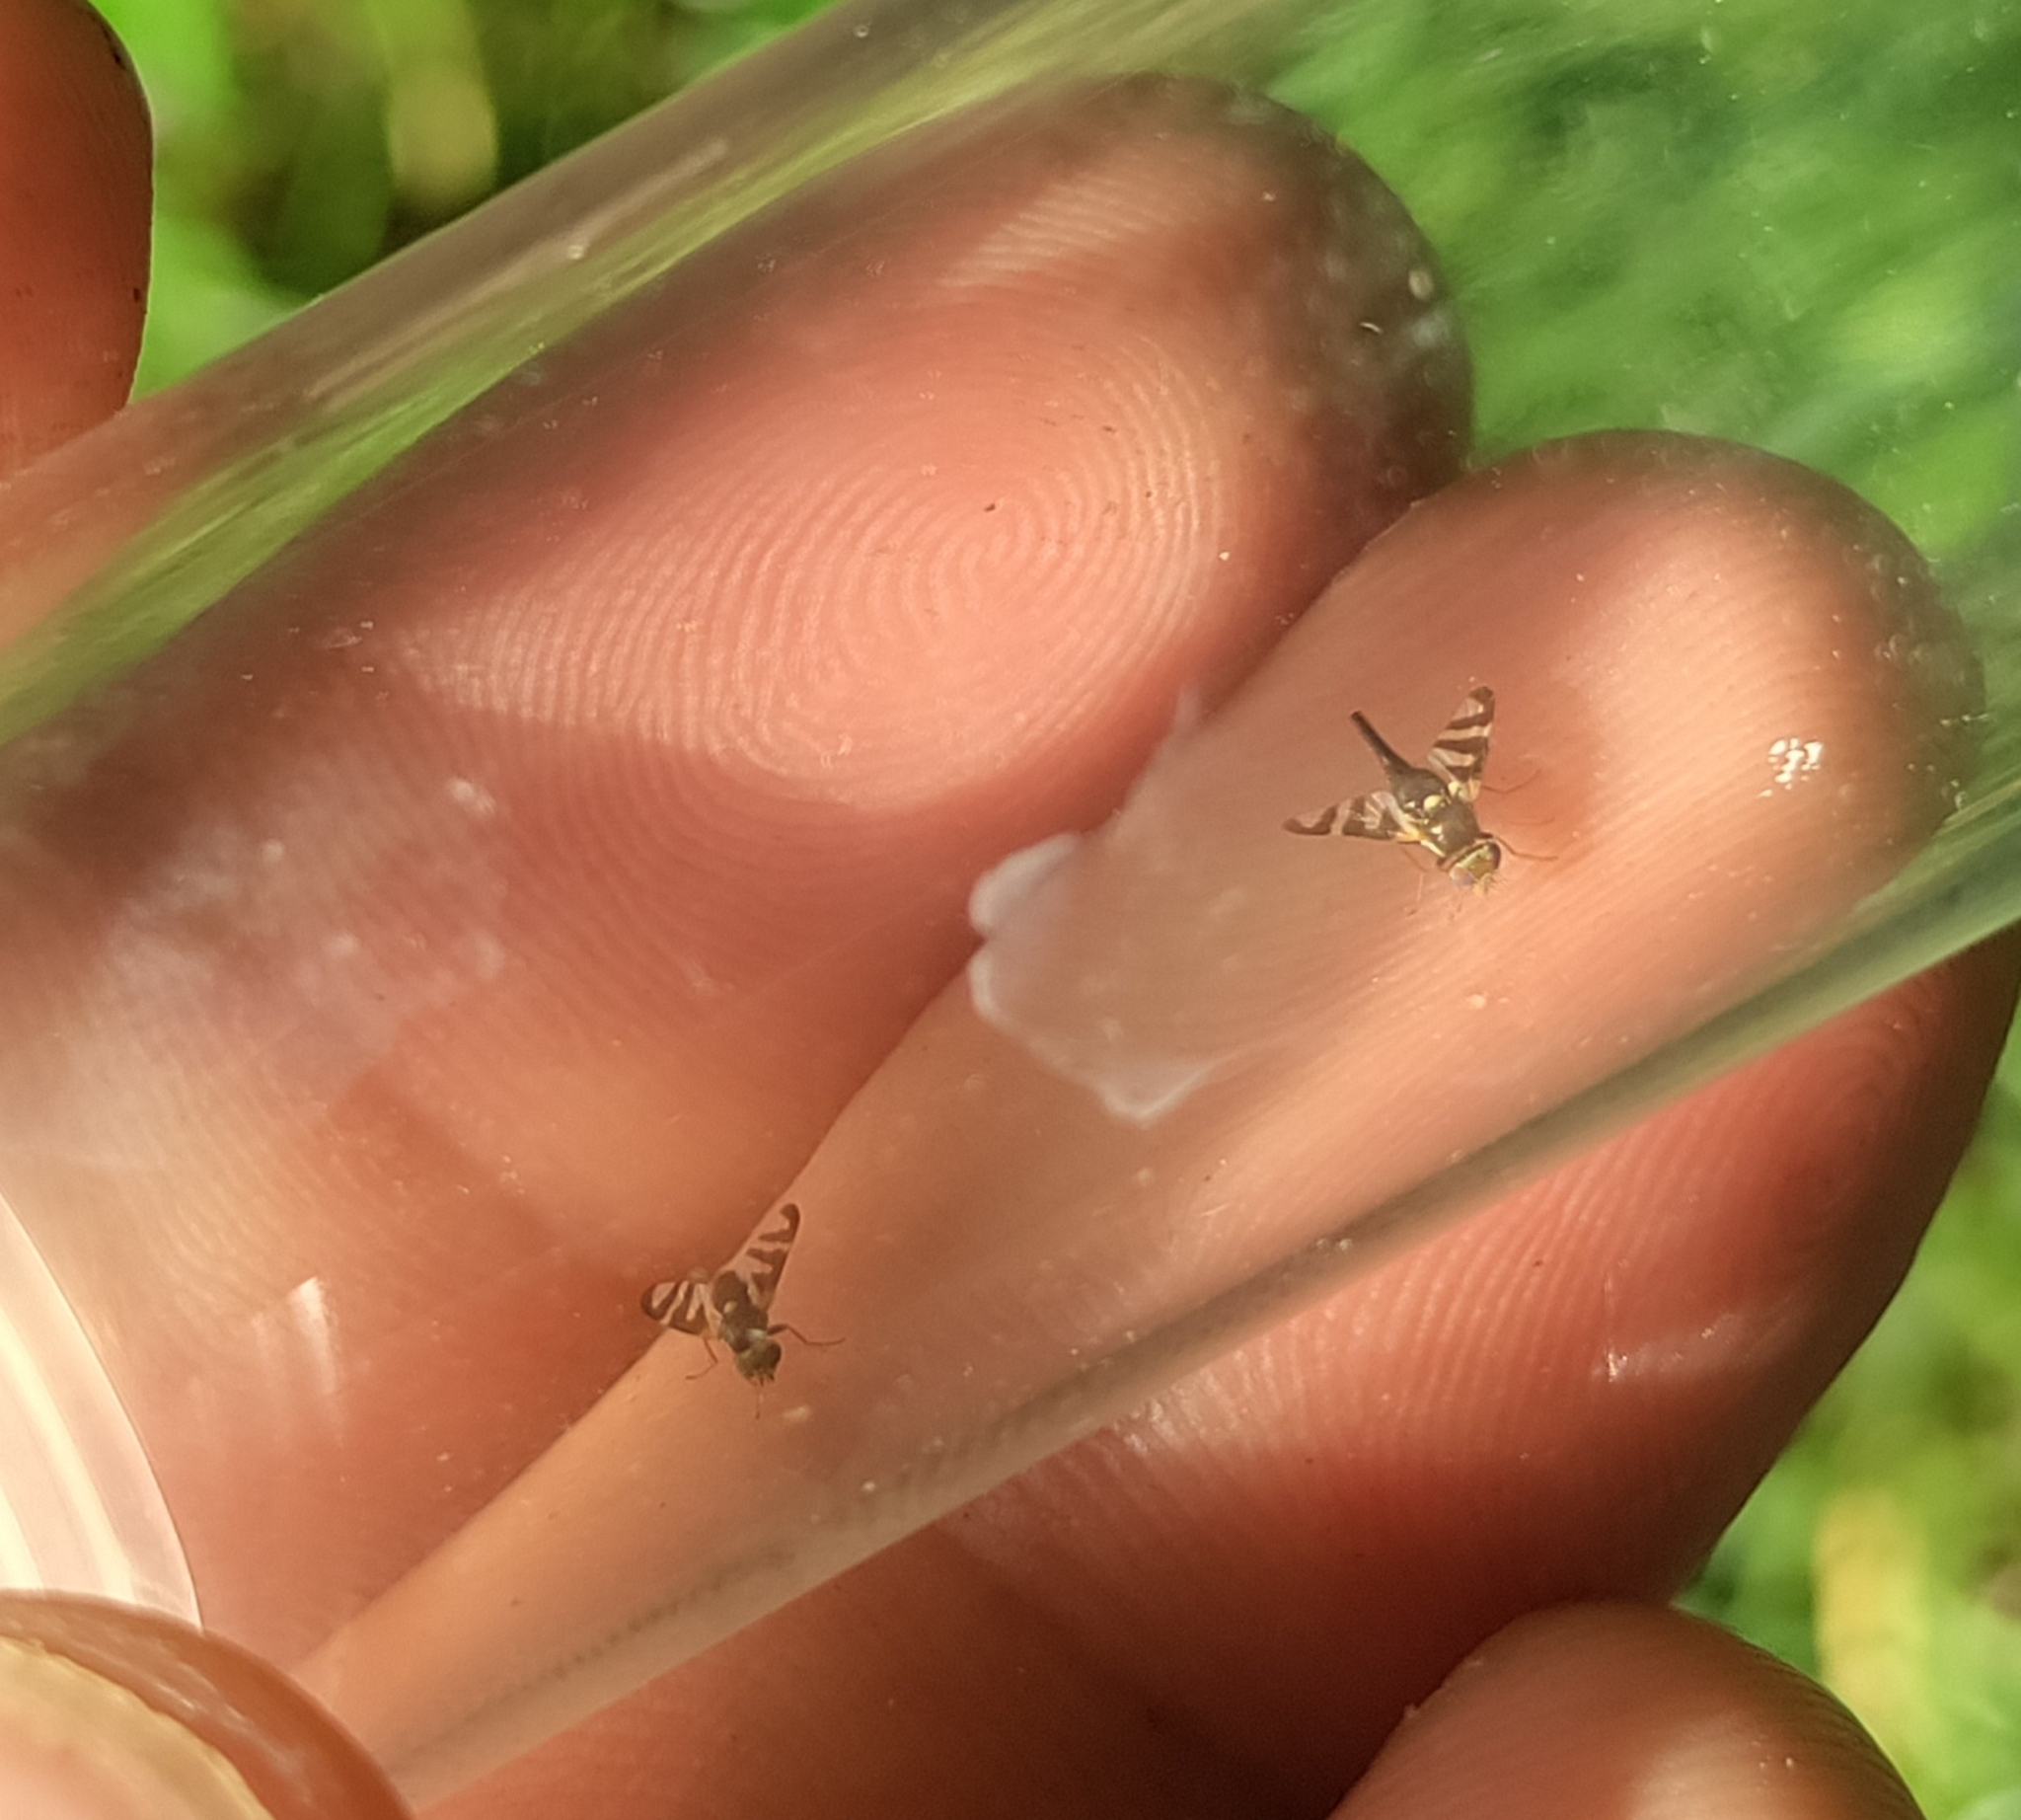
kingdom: Animalia
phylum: Arthropoda
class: Insecta
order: Diptera
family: Tephritidae
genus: Urophora
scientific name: Urophora quadrifasciata
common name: Knapweed seedhead fly
